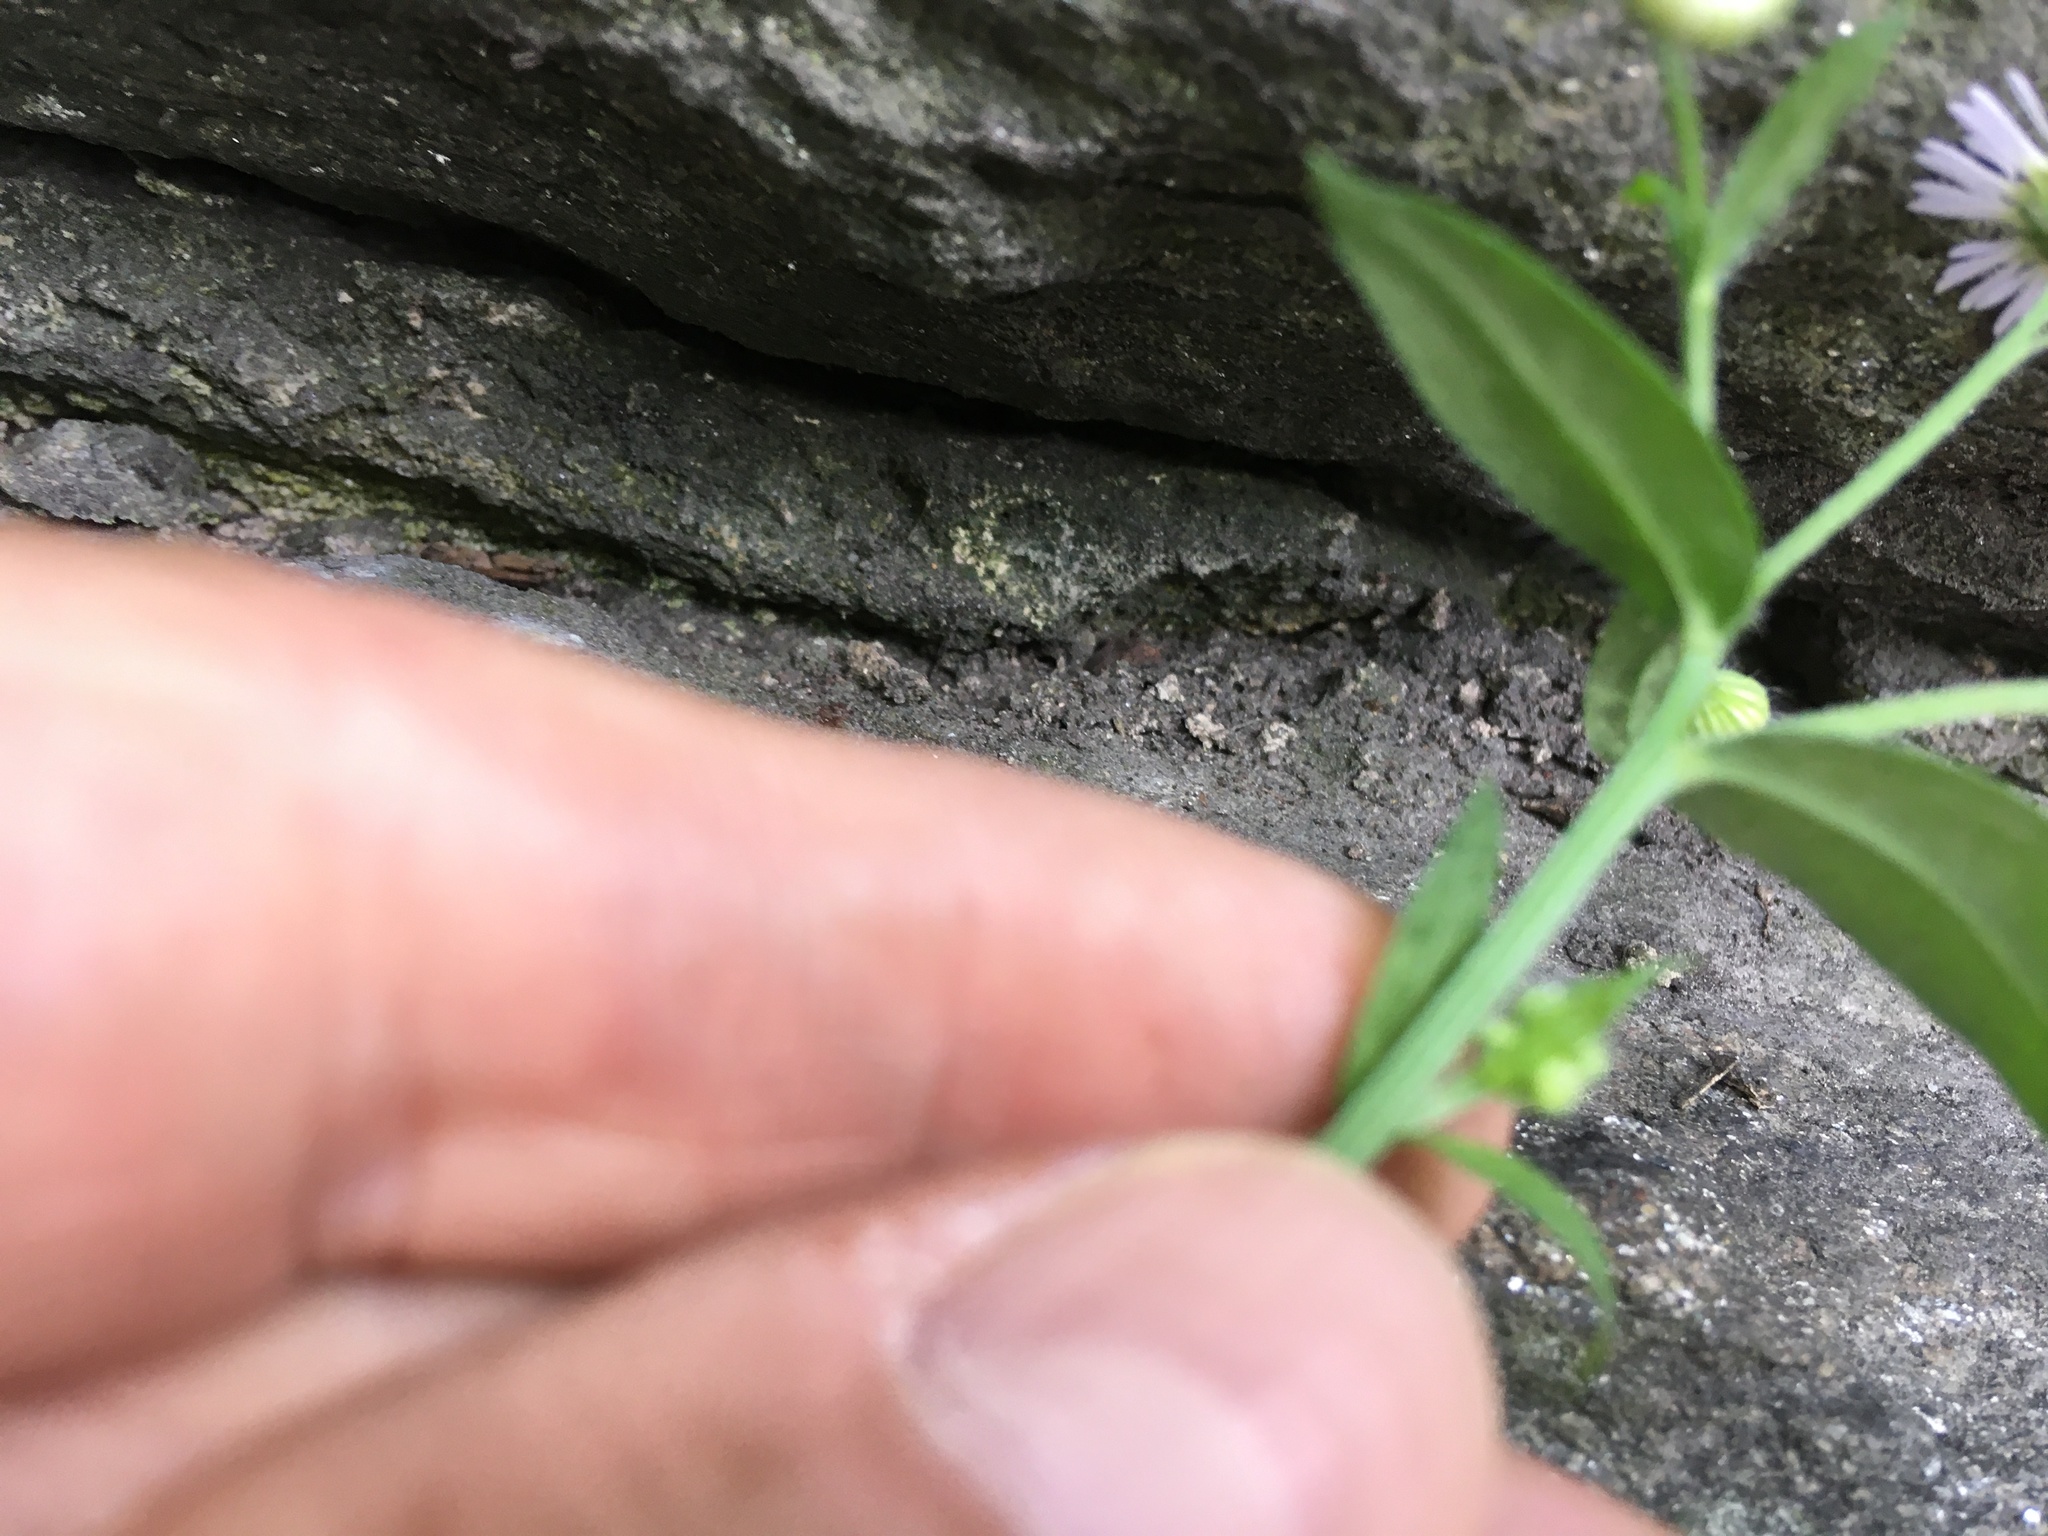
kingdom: Plantae
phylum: Tracheophyta
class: Magnoliopsida
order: Asterales
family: Asteraceae
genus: Erigeron
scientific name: Erigeron strigosus
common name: Common eastern fleabane
